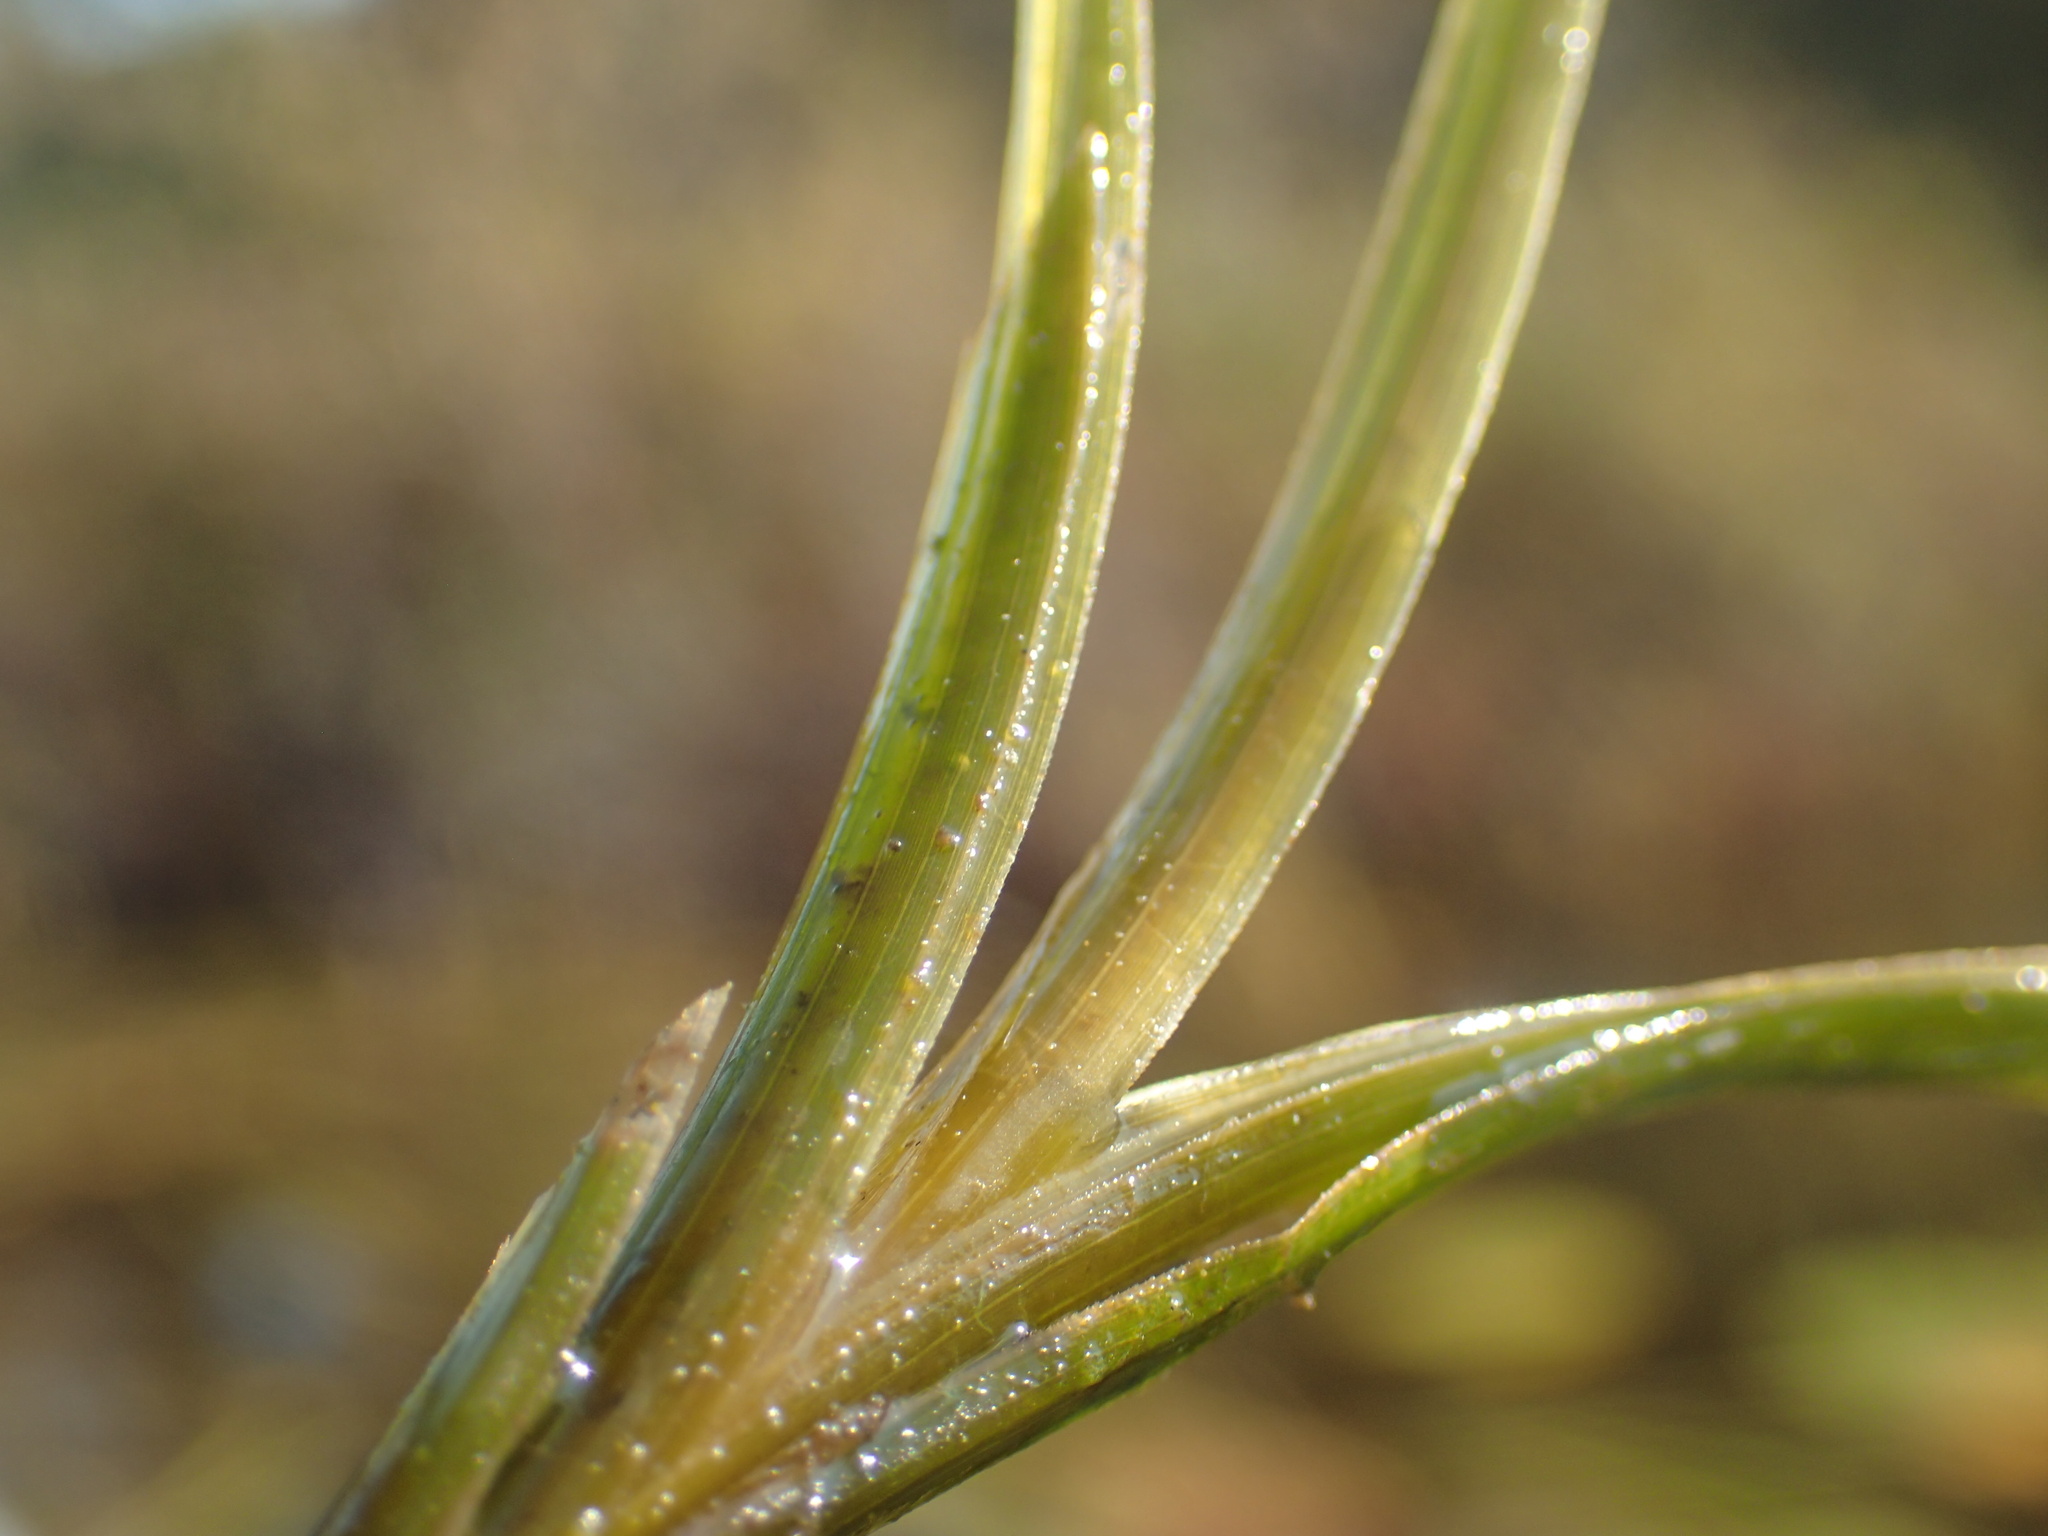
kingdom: Plantae
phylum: Tracheophyta
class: Liliopsida
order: Alismatales
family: Potamogetonaceae
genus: Potamogeton
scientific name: Potamogeton robbinsii
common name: Fern pondweed
